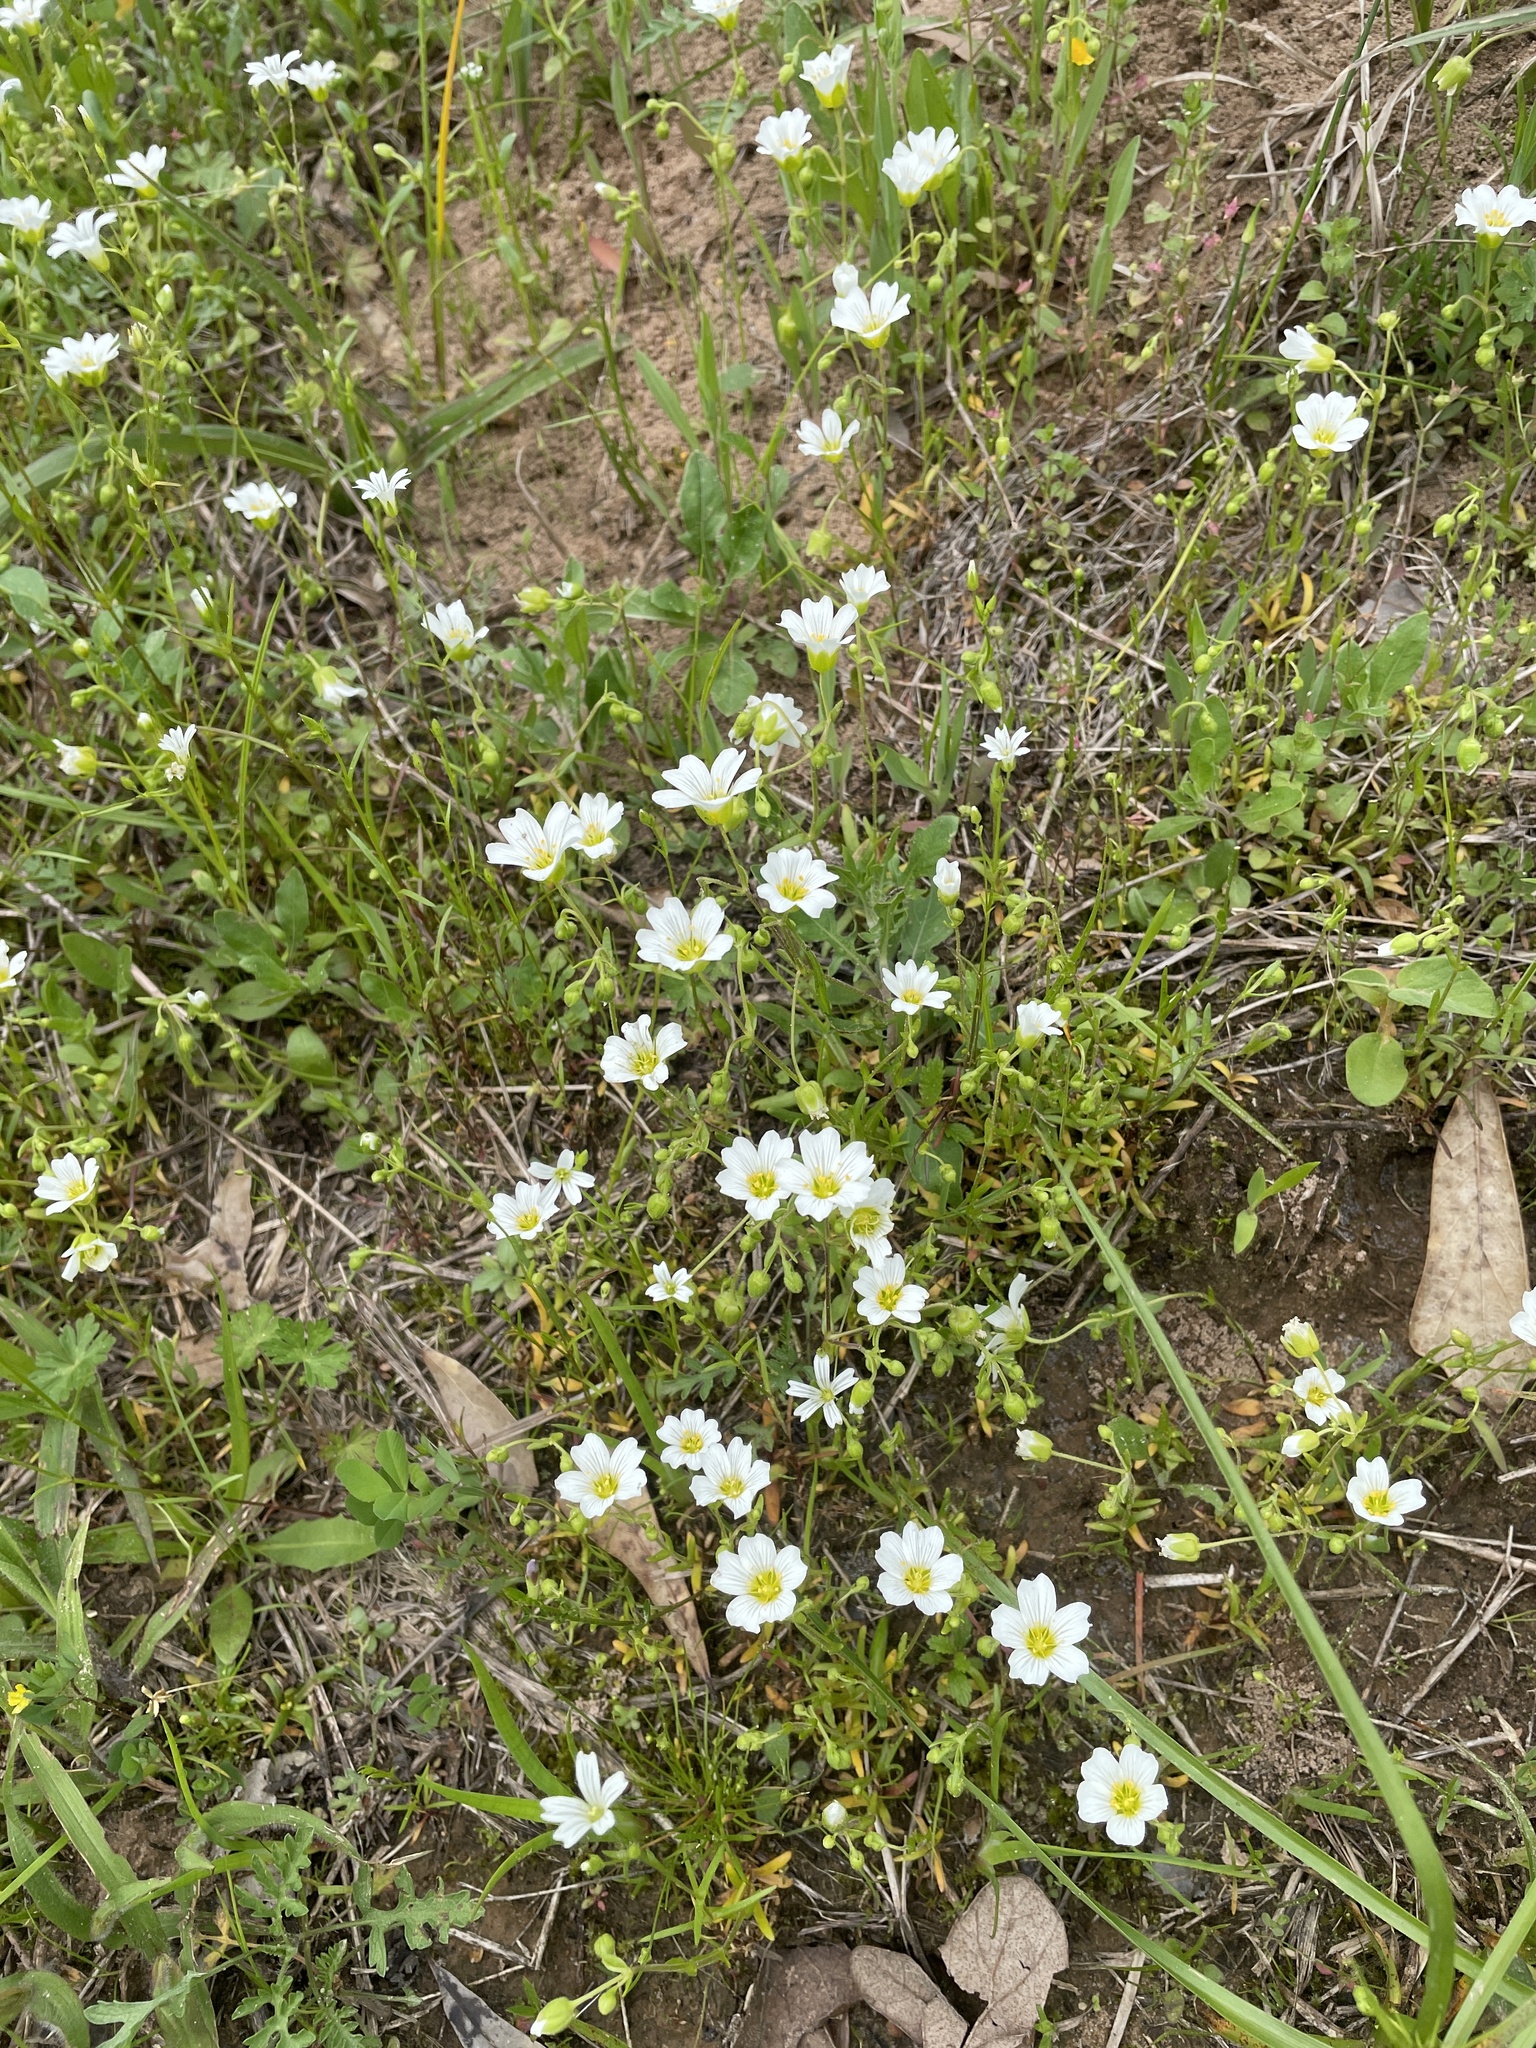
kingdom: Plantae
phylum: Tracheophyta
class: Magnoliopsida
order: Caryophyllales
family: Caryophyllaceae
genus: Geocarpon
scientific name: Geocarpon nuttallii
